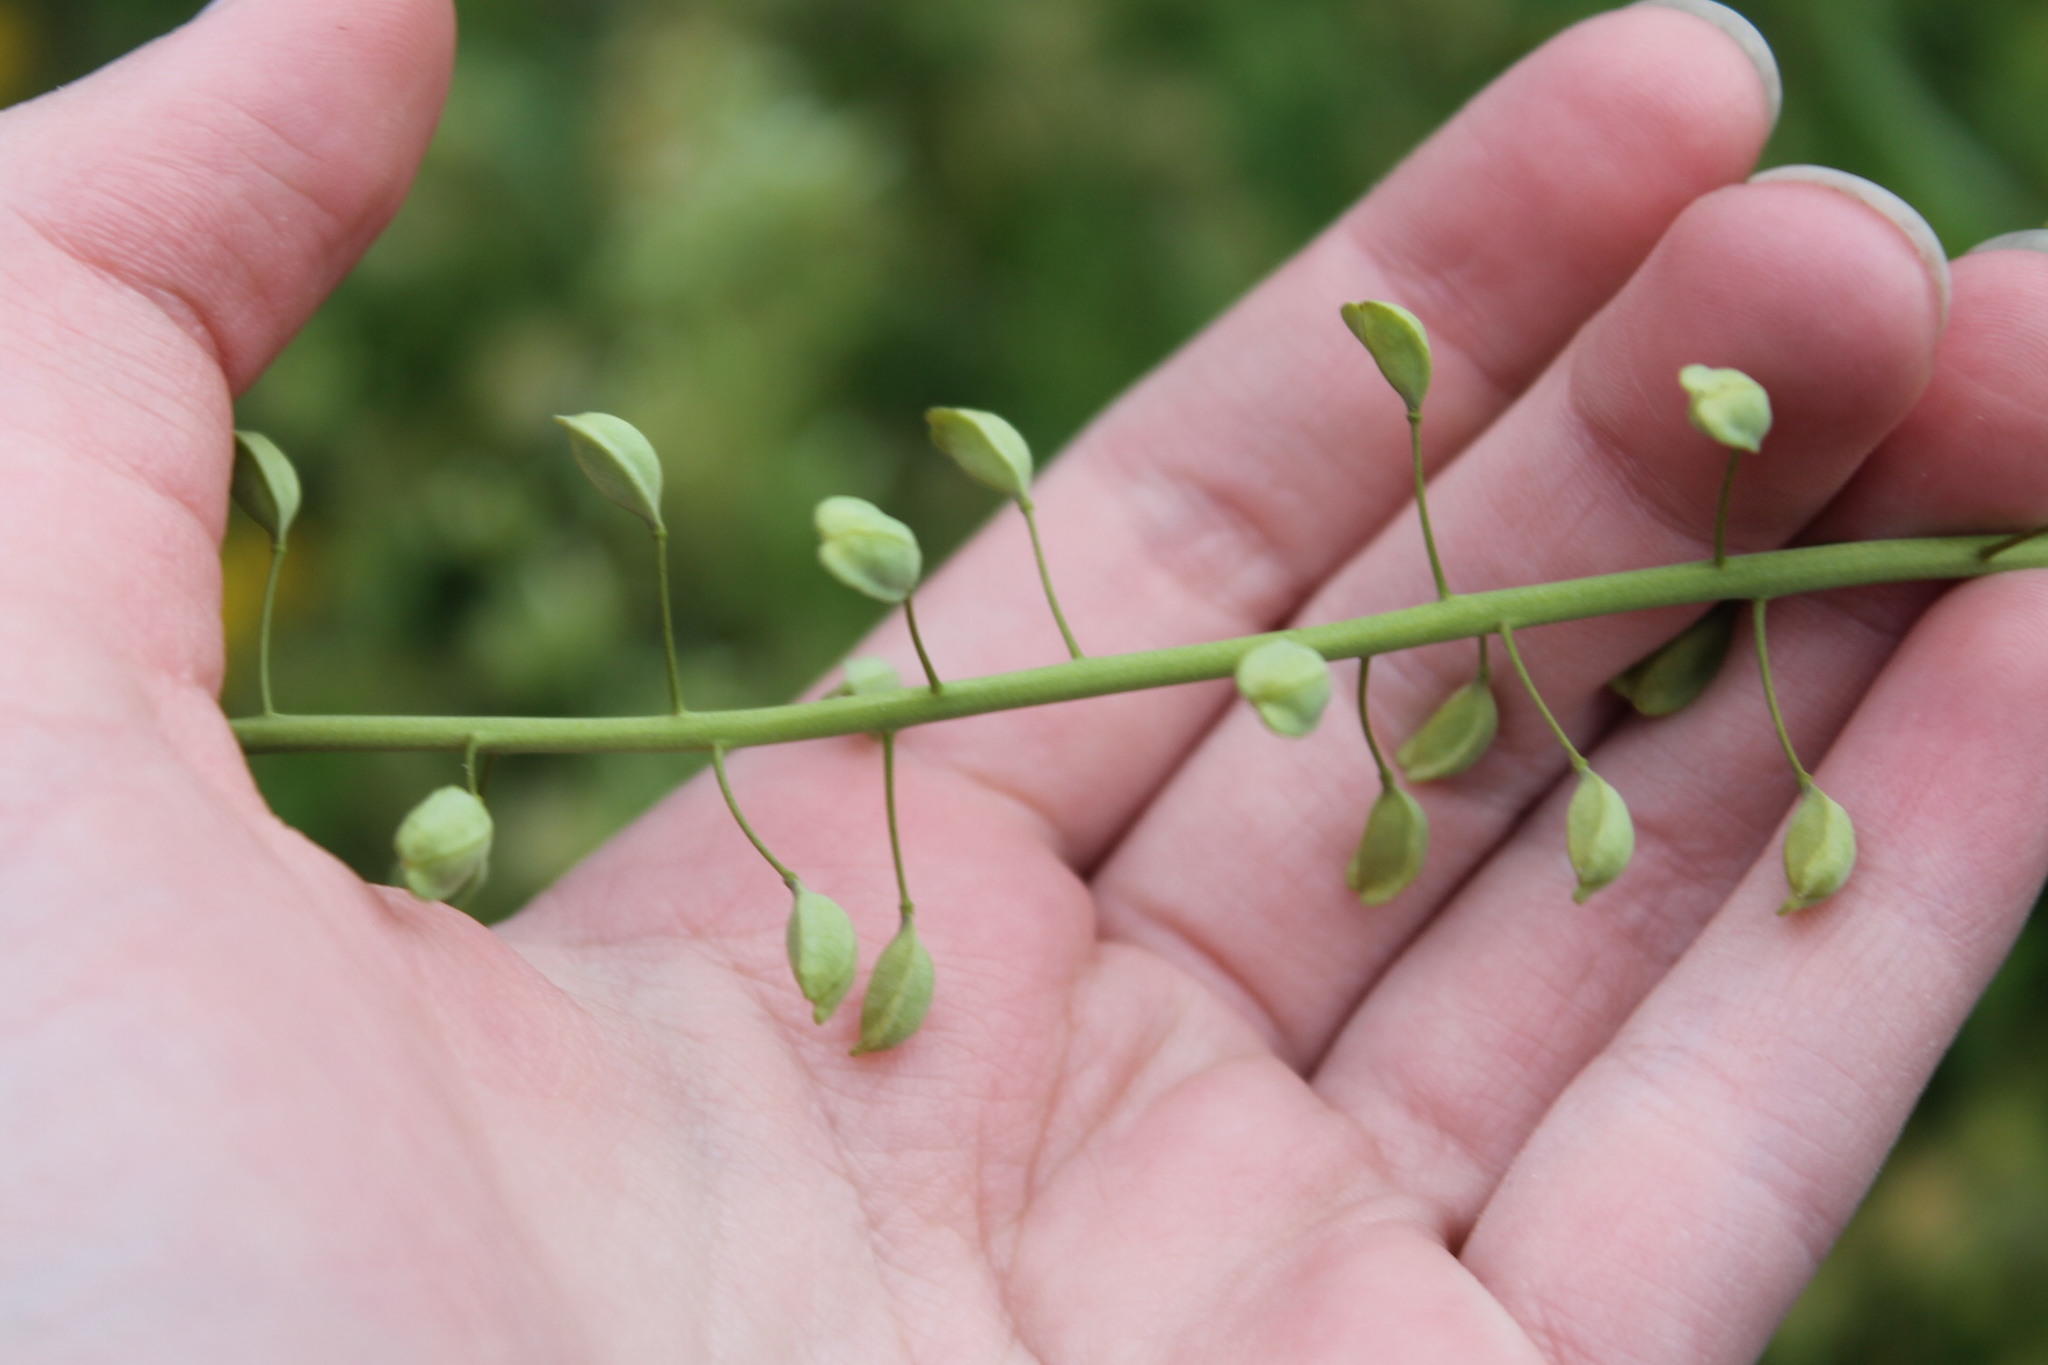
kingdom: Plantae
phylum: Tracheophyta
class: Magnoliopsida
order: Brassicales
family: Brassicaceae
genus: Mummenhoffia
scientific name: Mummenhoffia alliacea
